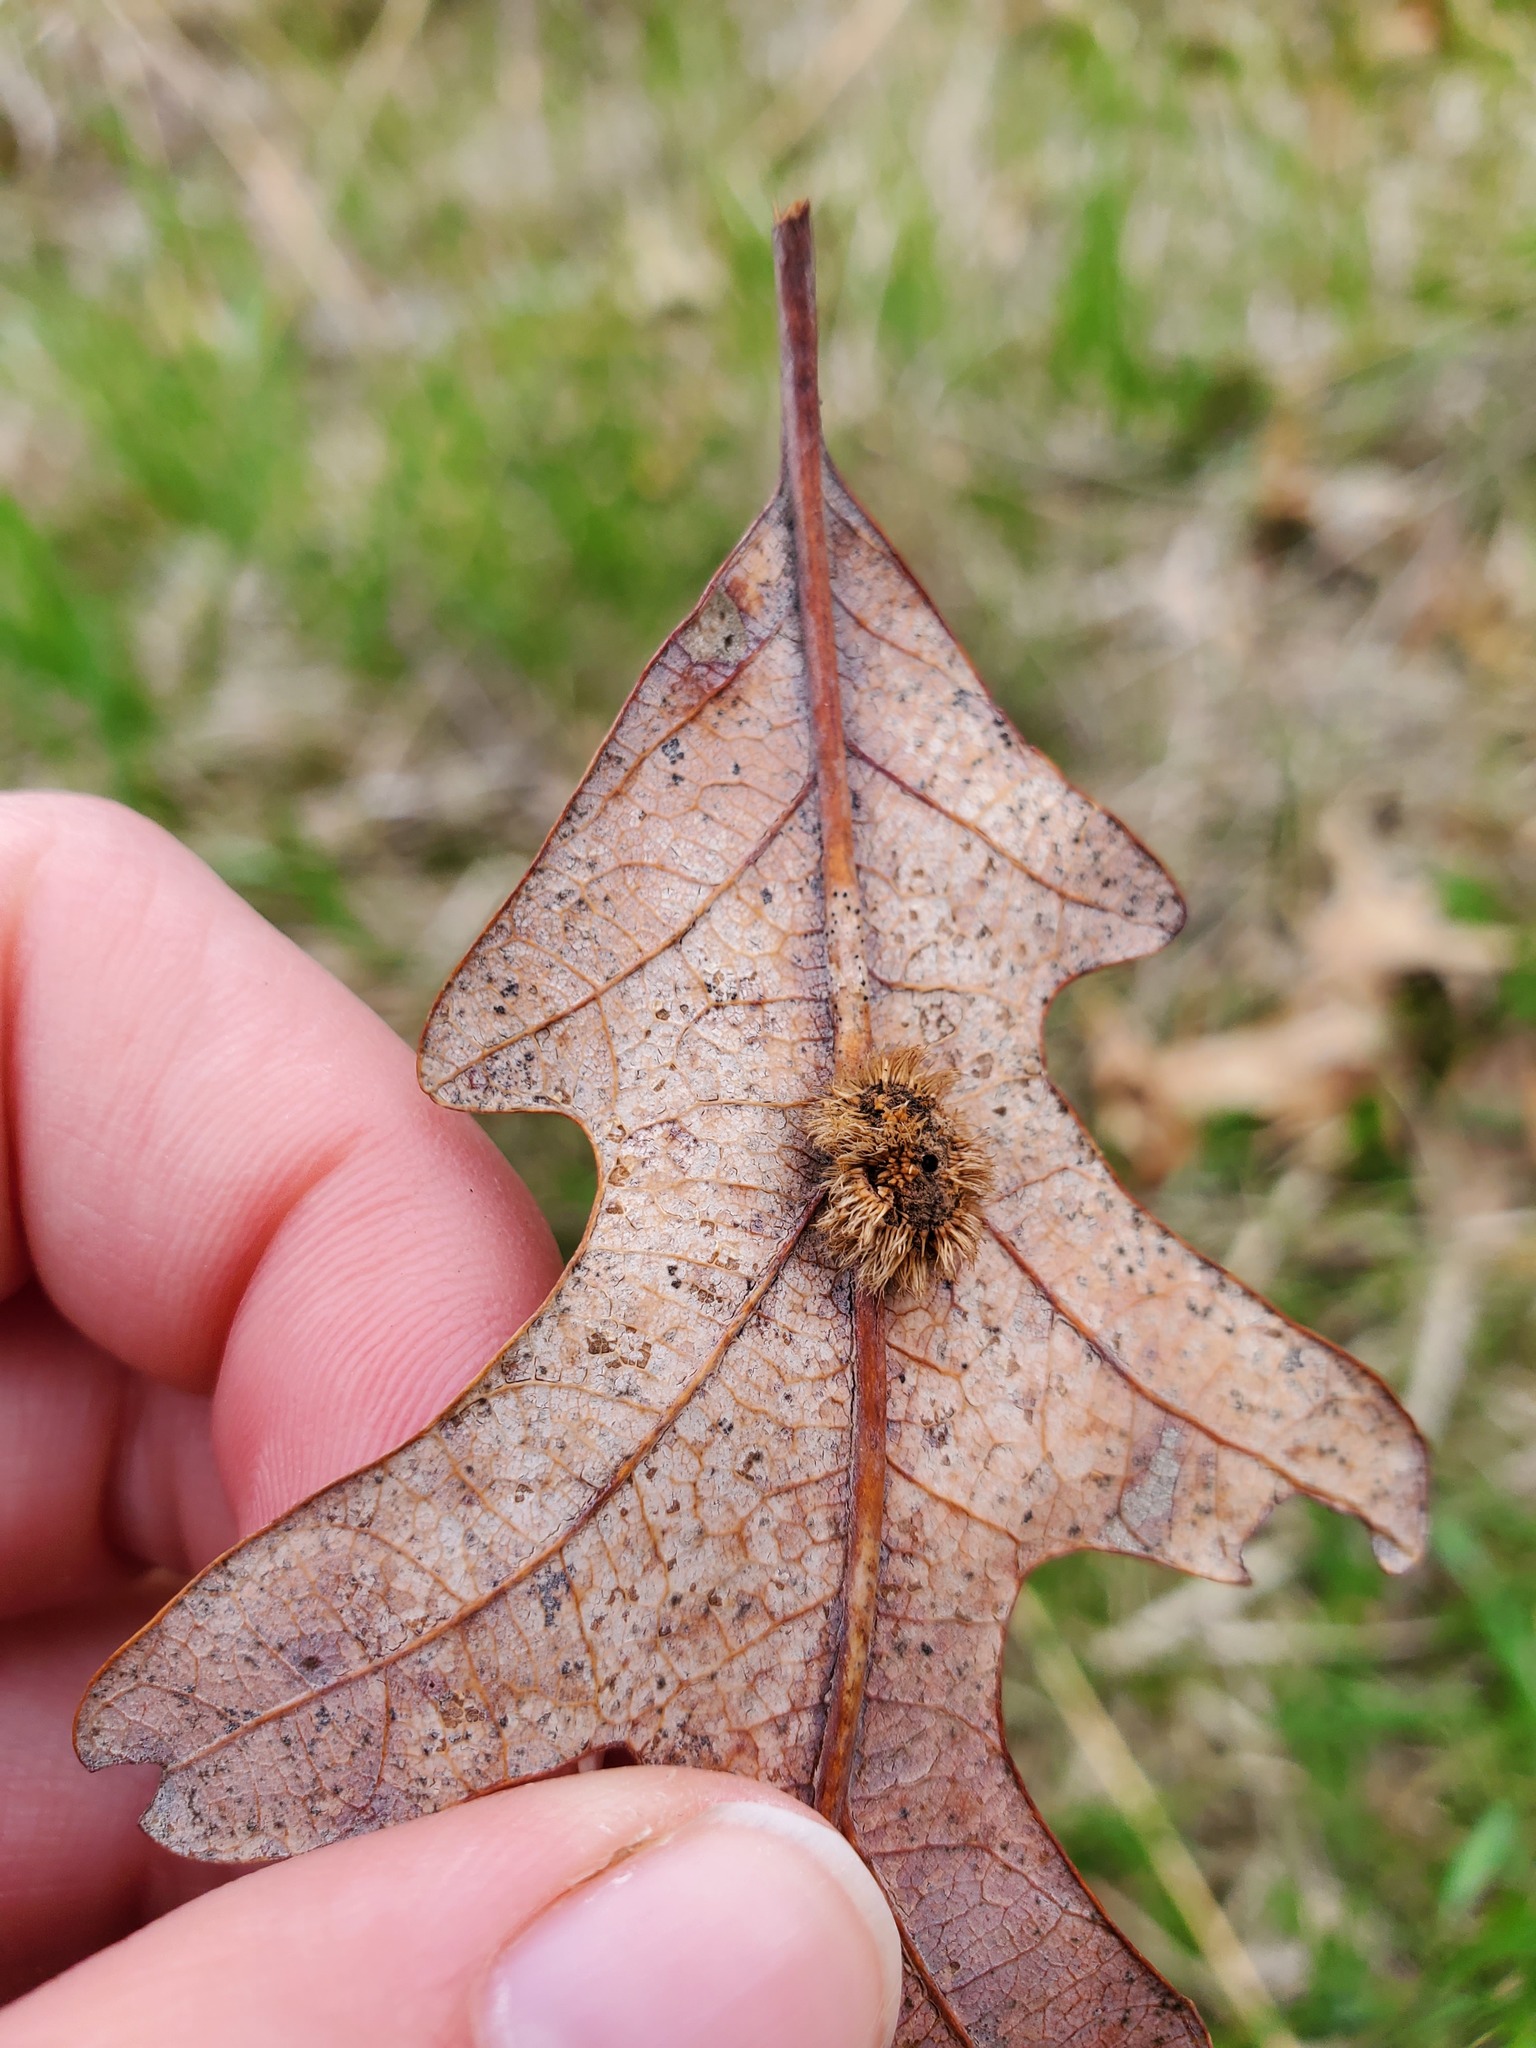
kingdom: Animalia
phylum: Arthropoda
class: Insecta
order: Hymenoptera
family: Cynipidae
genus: Acraspis
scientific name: Acraspis erinacei
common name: Hedgehog gall wasp
